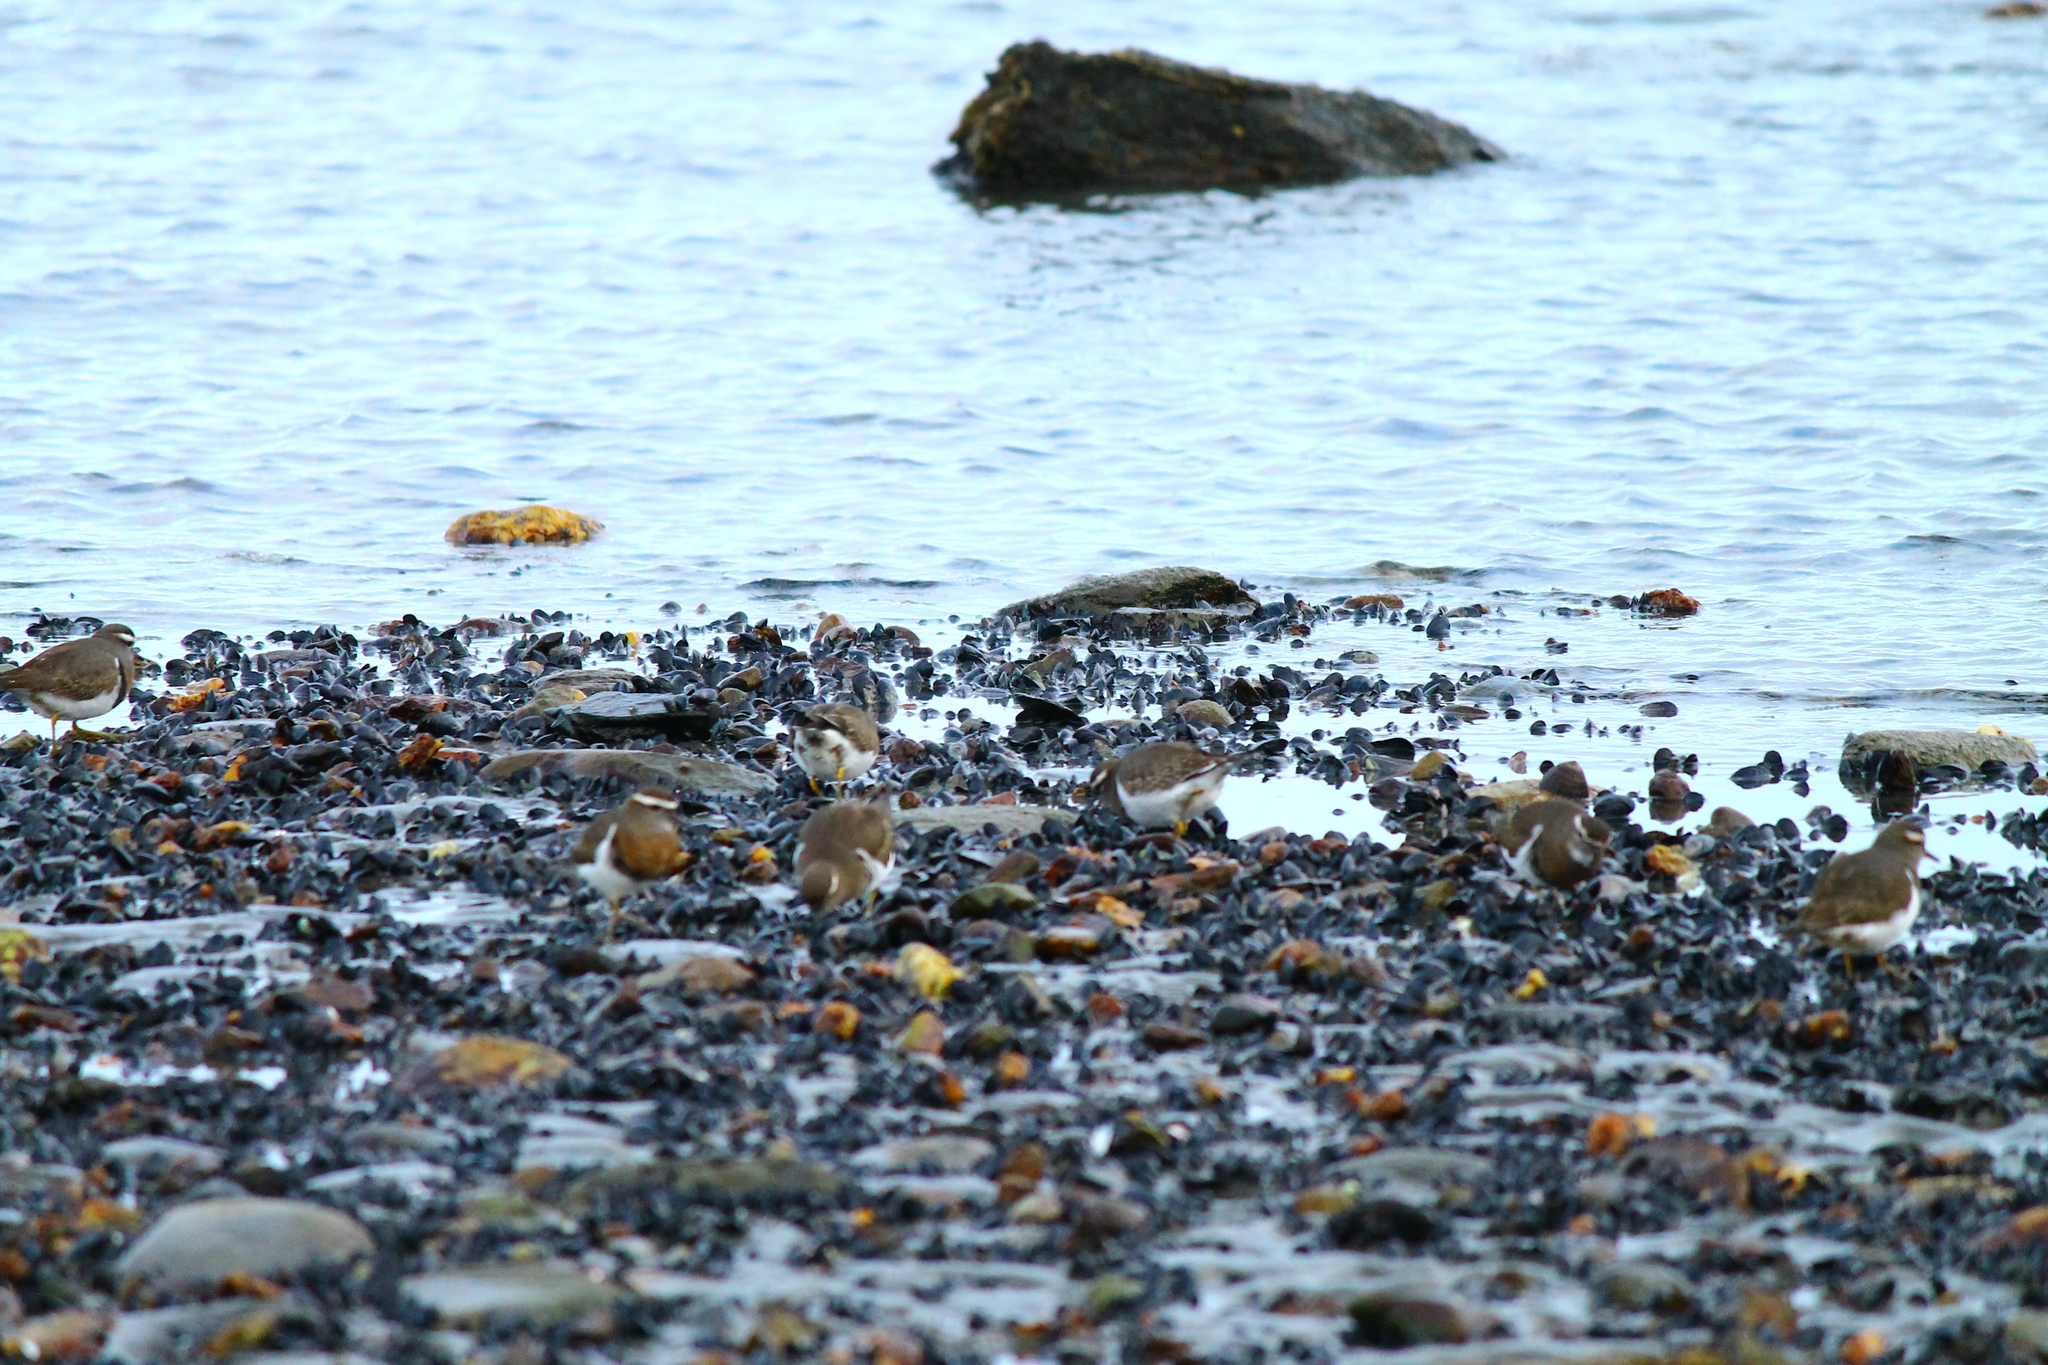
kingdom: Animalia
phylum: Chordata
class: Aves
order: Charadriiformes
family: Charadriidae
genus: Charadrius
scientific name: Charadrius modestus
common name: Rufous-chested plover
